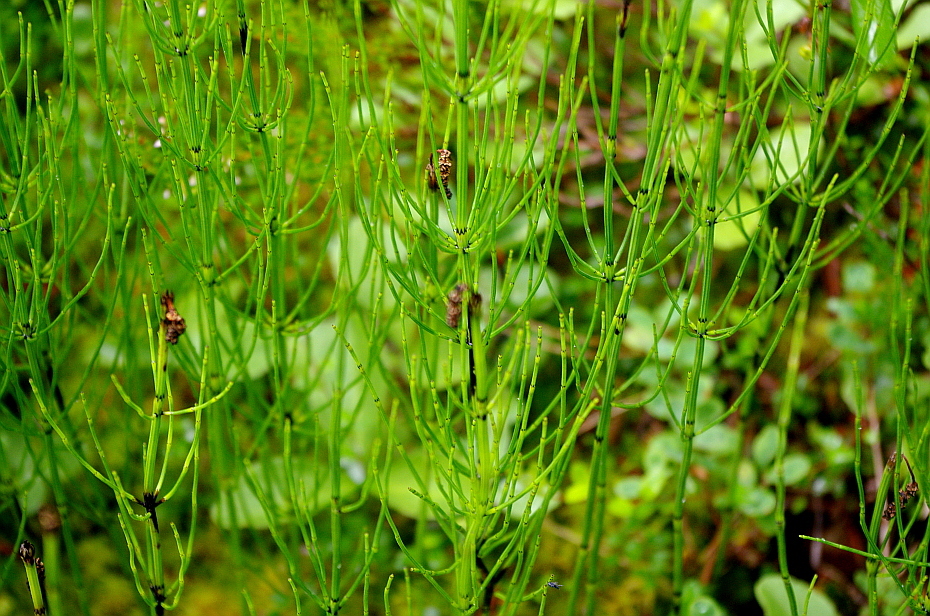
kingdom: Plantae
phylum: Tracheophyta
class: Polypodiopsida
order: Equisetales
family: Equisetaceae
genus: Equisetum
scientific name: Equisetum palustre
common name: Marsh horsetail
